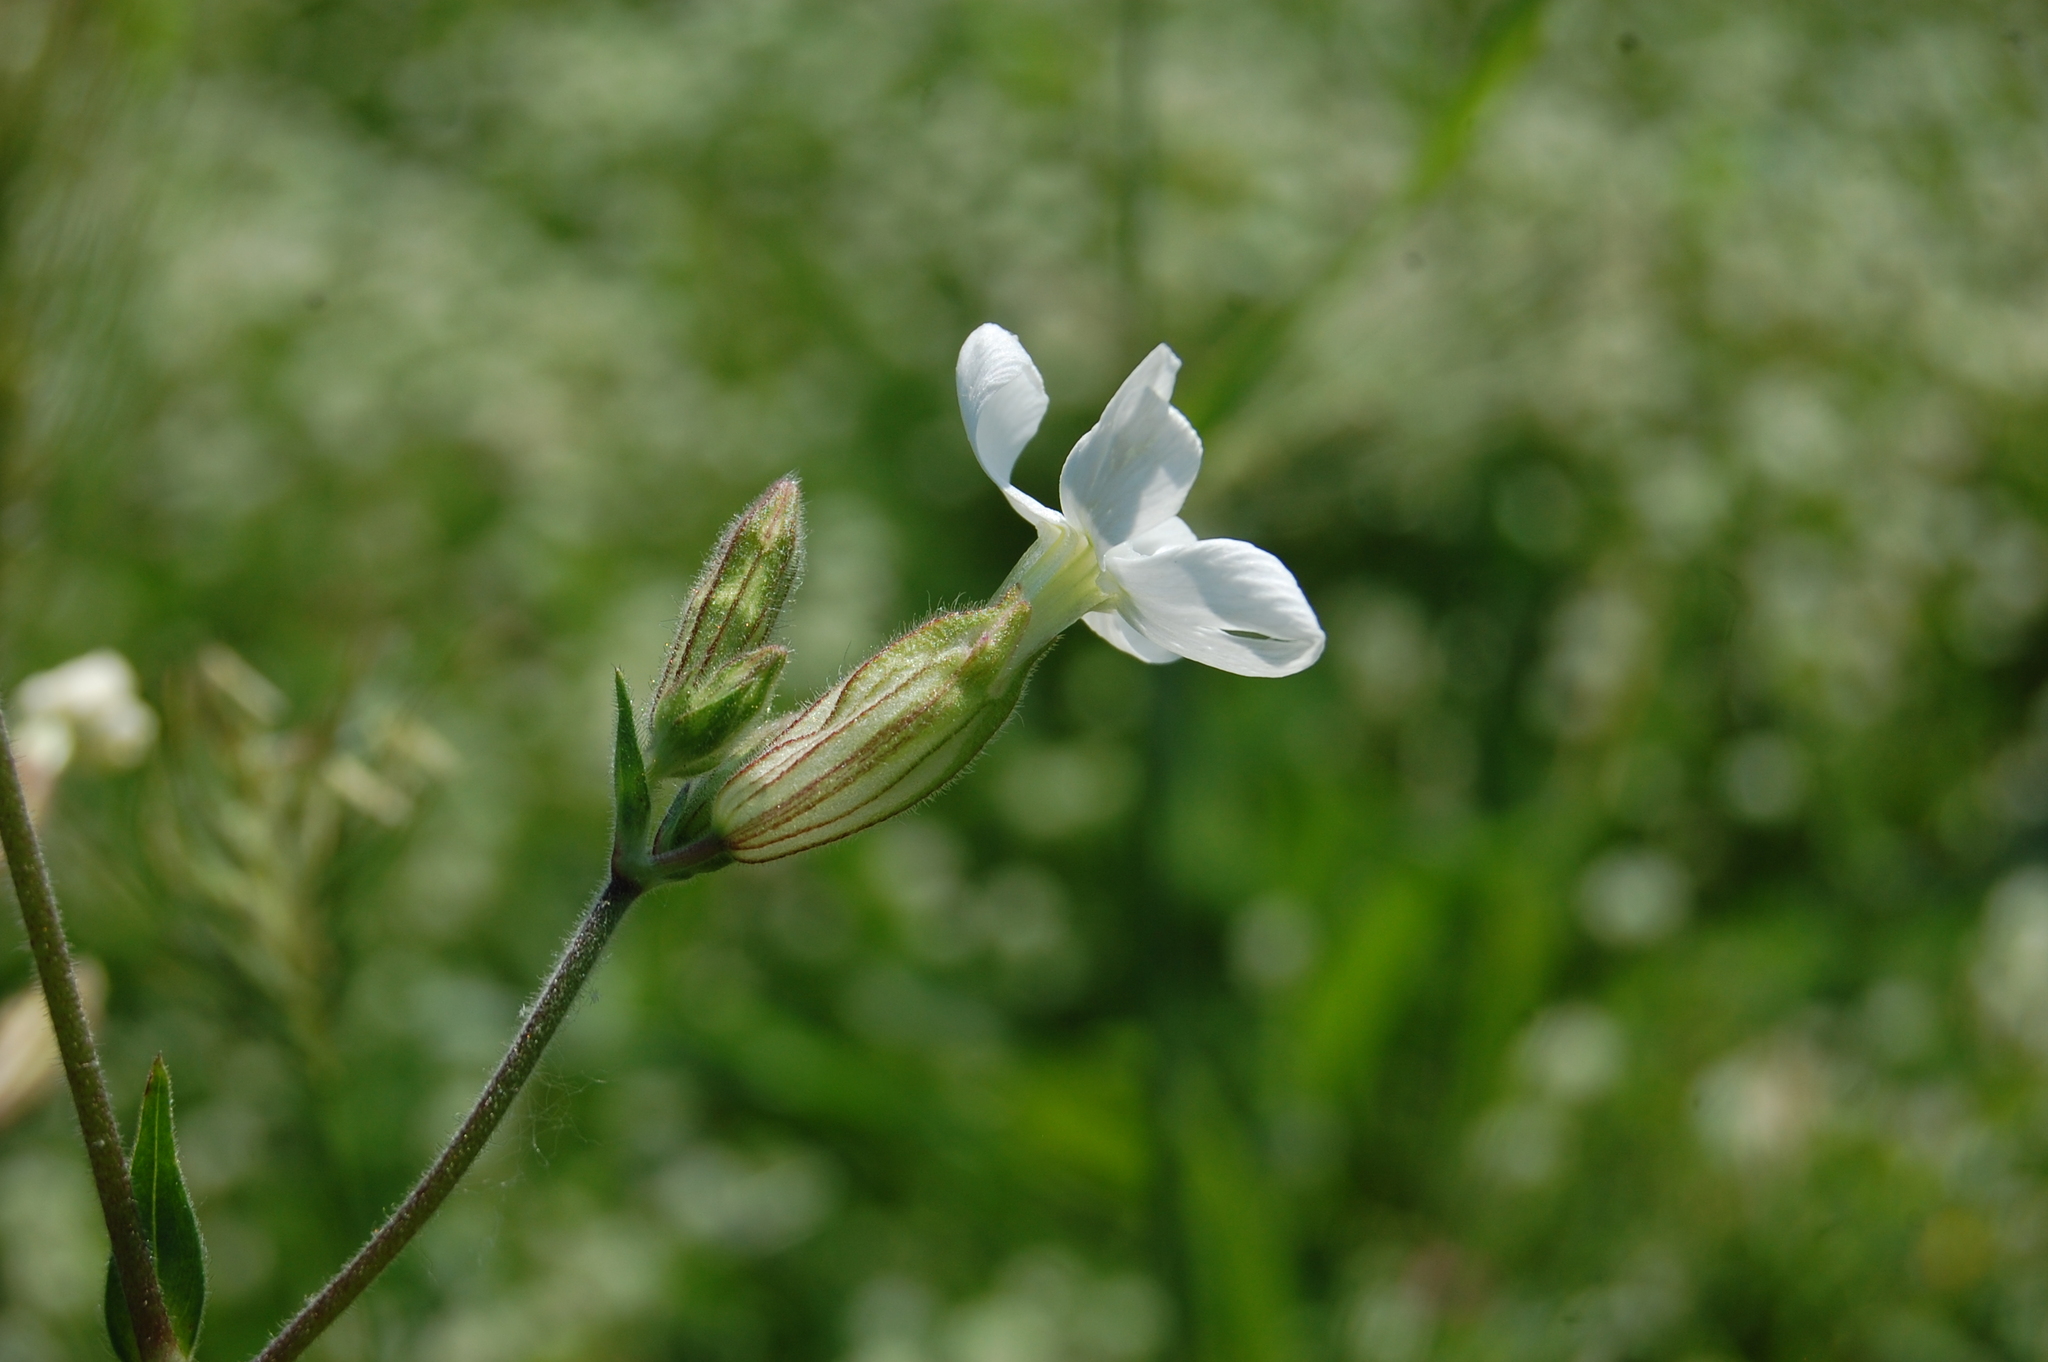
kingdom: Plantae
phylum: Tracheophyta
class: Magnoliopsida
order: Caryophyllales
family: Caryophyllaceae
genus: Silene
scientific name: Silene latifolia
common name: White campion
